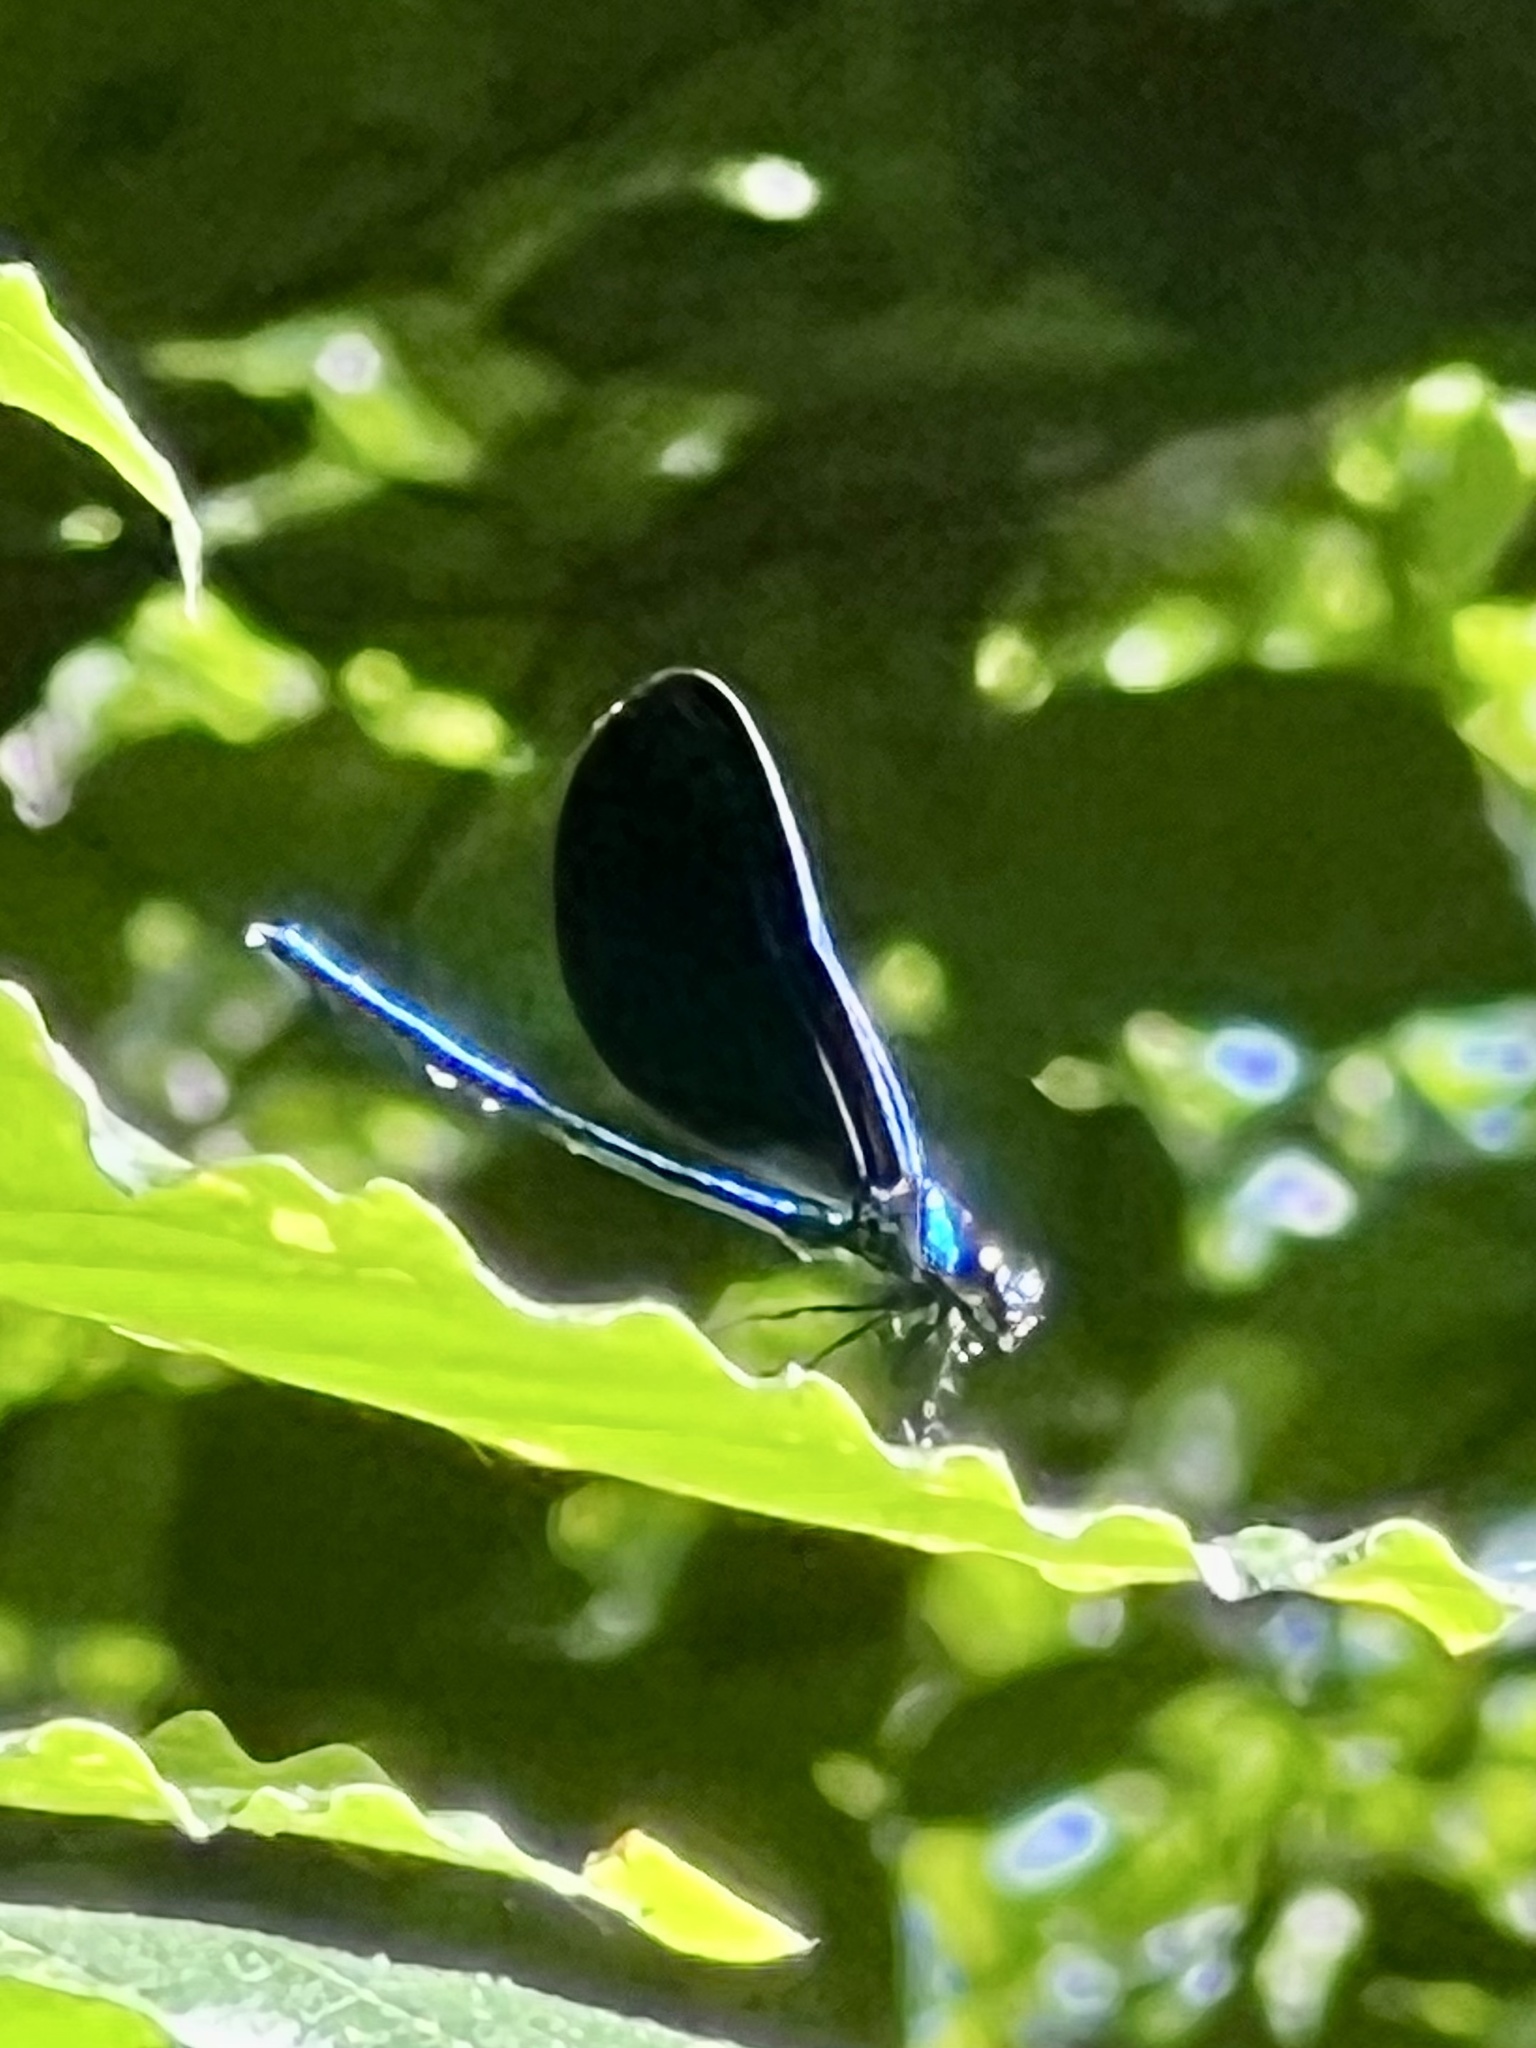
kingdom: Animalia
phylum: Arthropoda
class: Insecta
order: Odonata
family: Calopterygidae
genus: Calopteryx
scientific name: Calopteryx maculata
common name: Ebony jewelwing
